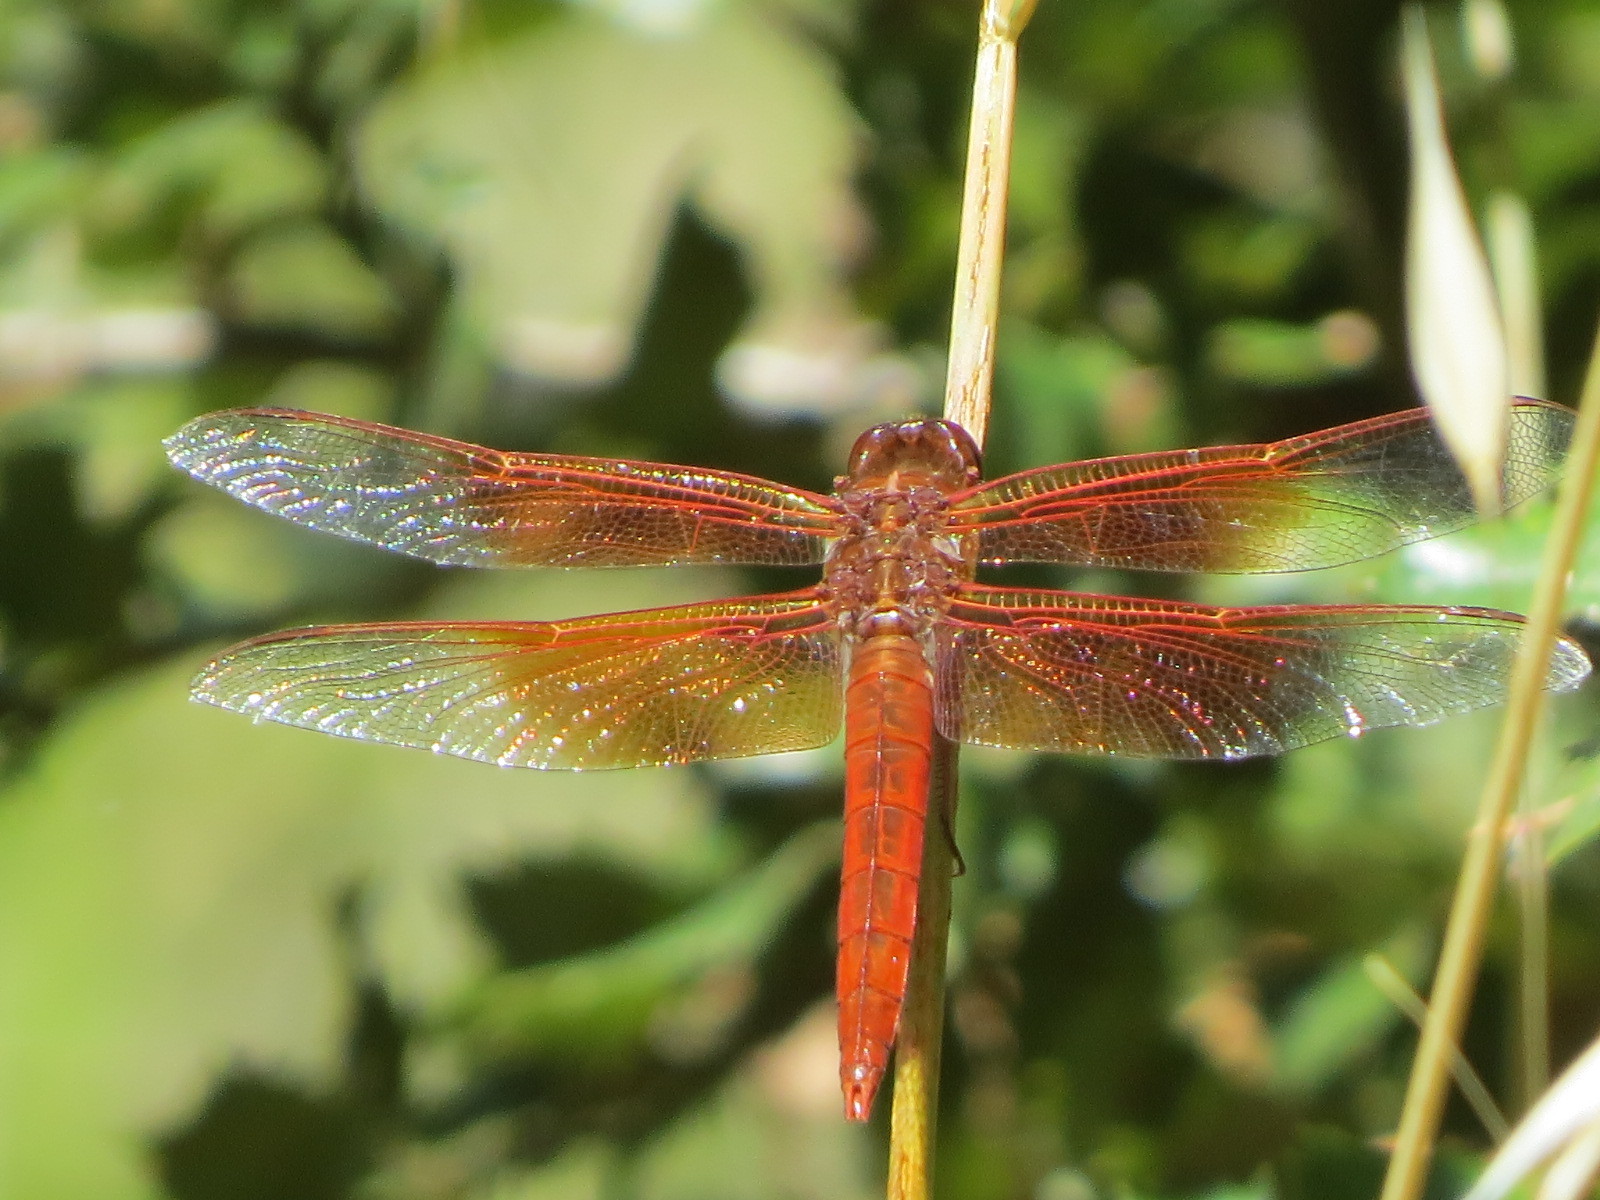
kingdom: Animalia
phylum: Arthropoda
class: Insecta
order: Odonata
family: Libellulidae
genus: Libellula
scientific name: Libellula saturata
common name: Flame skimmer
